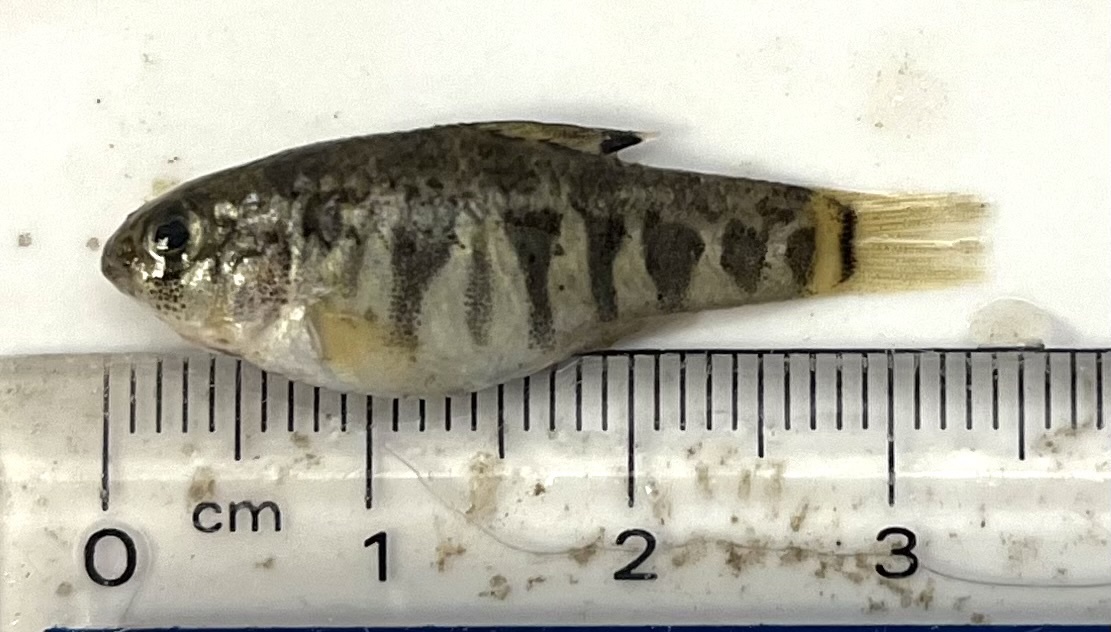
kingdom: Animalia
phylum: Chordata
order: Cyprinodontiformes
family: Cyprinodontidae
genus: Cyprinodon
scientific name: Cyprinodon variegatus
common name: Sheepshead minnow
